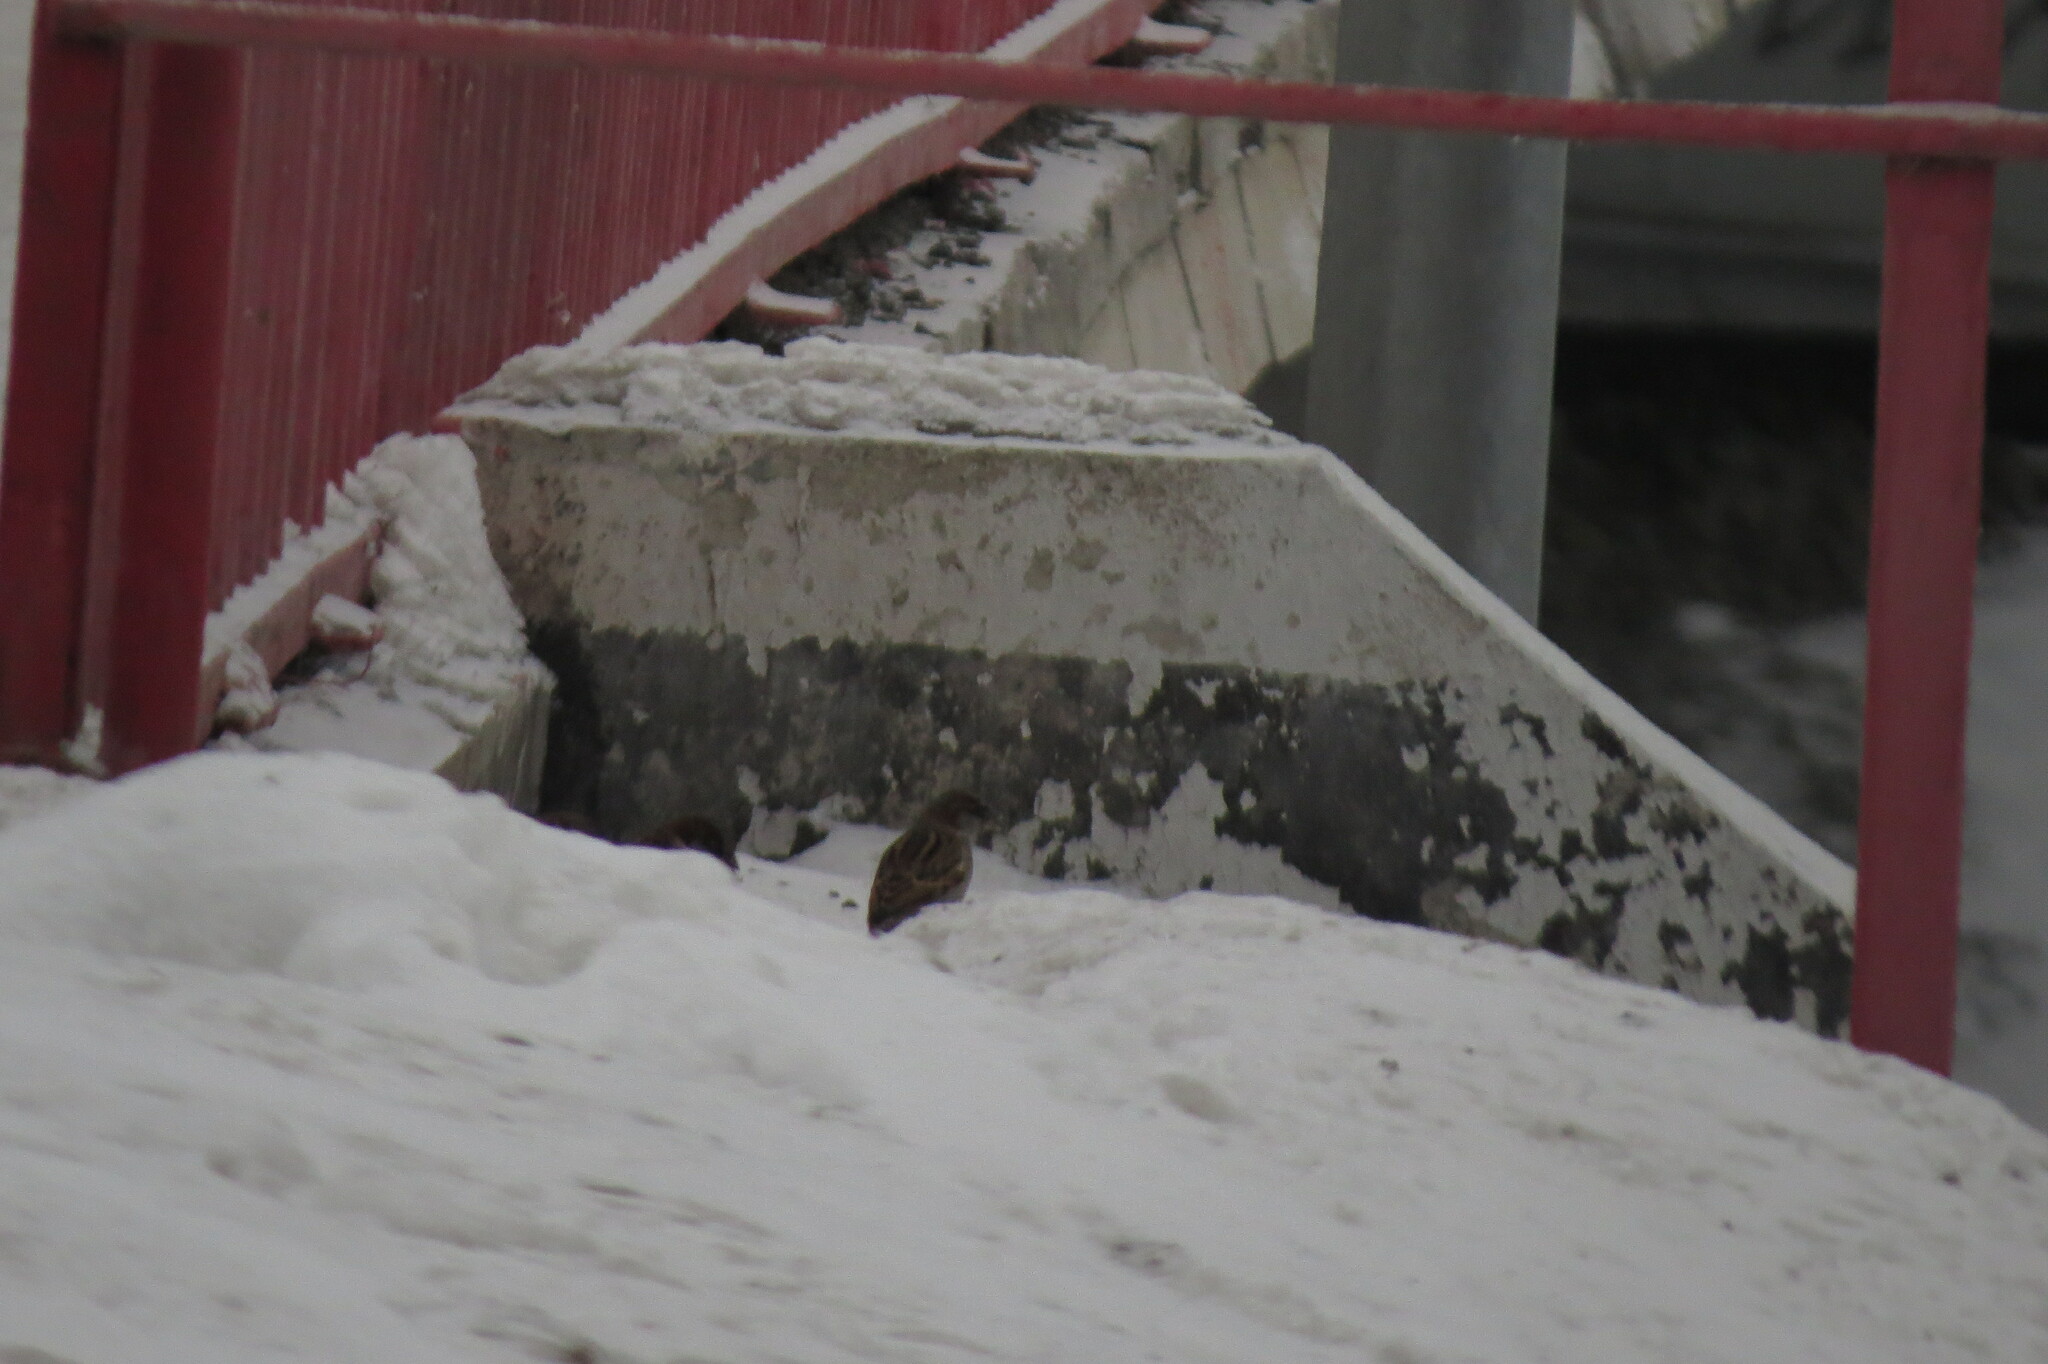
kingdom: Animalia
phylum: Chordata
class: Aves
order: Passeriformes
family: Passeridae
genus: Passer
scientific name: Passer domesticus
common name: House sparrow
